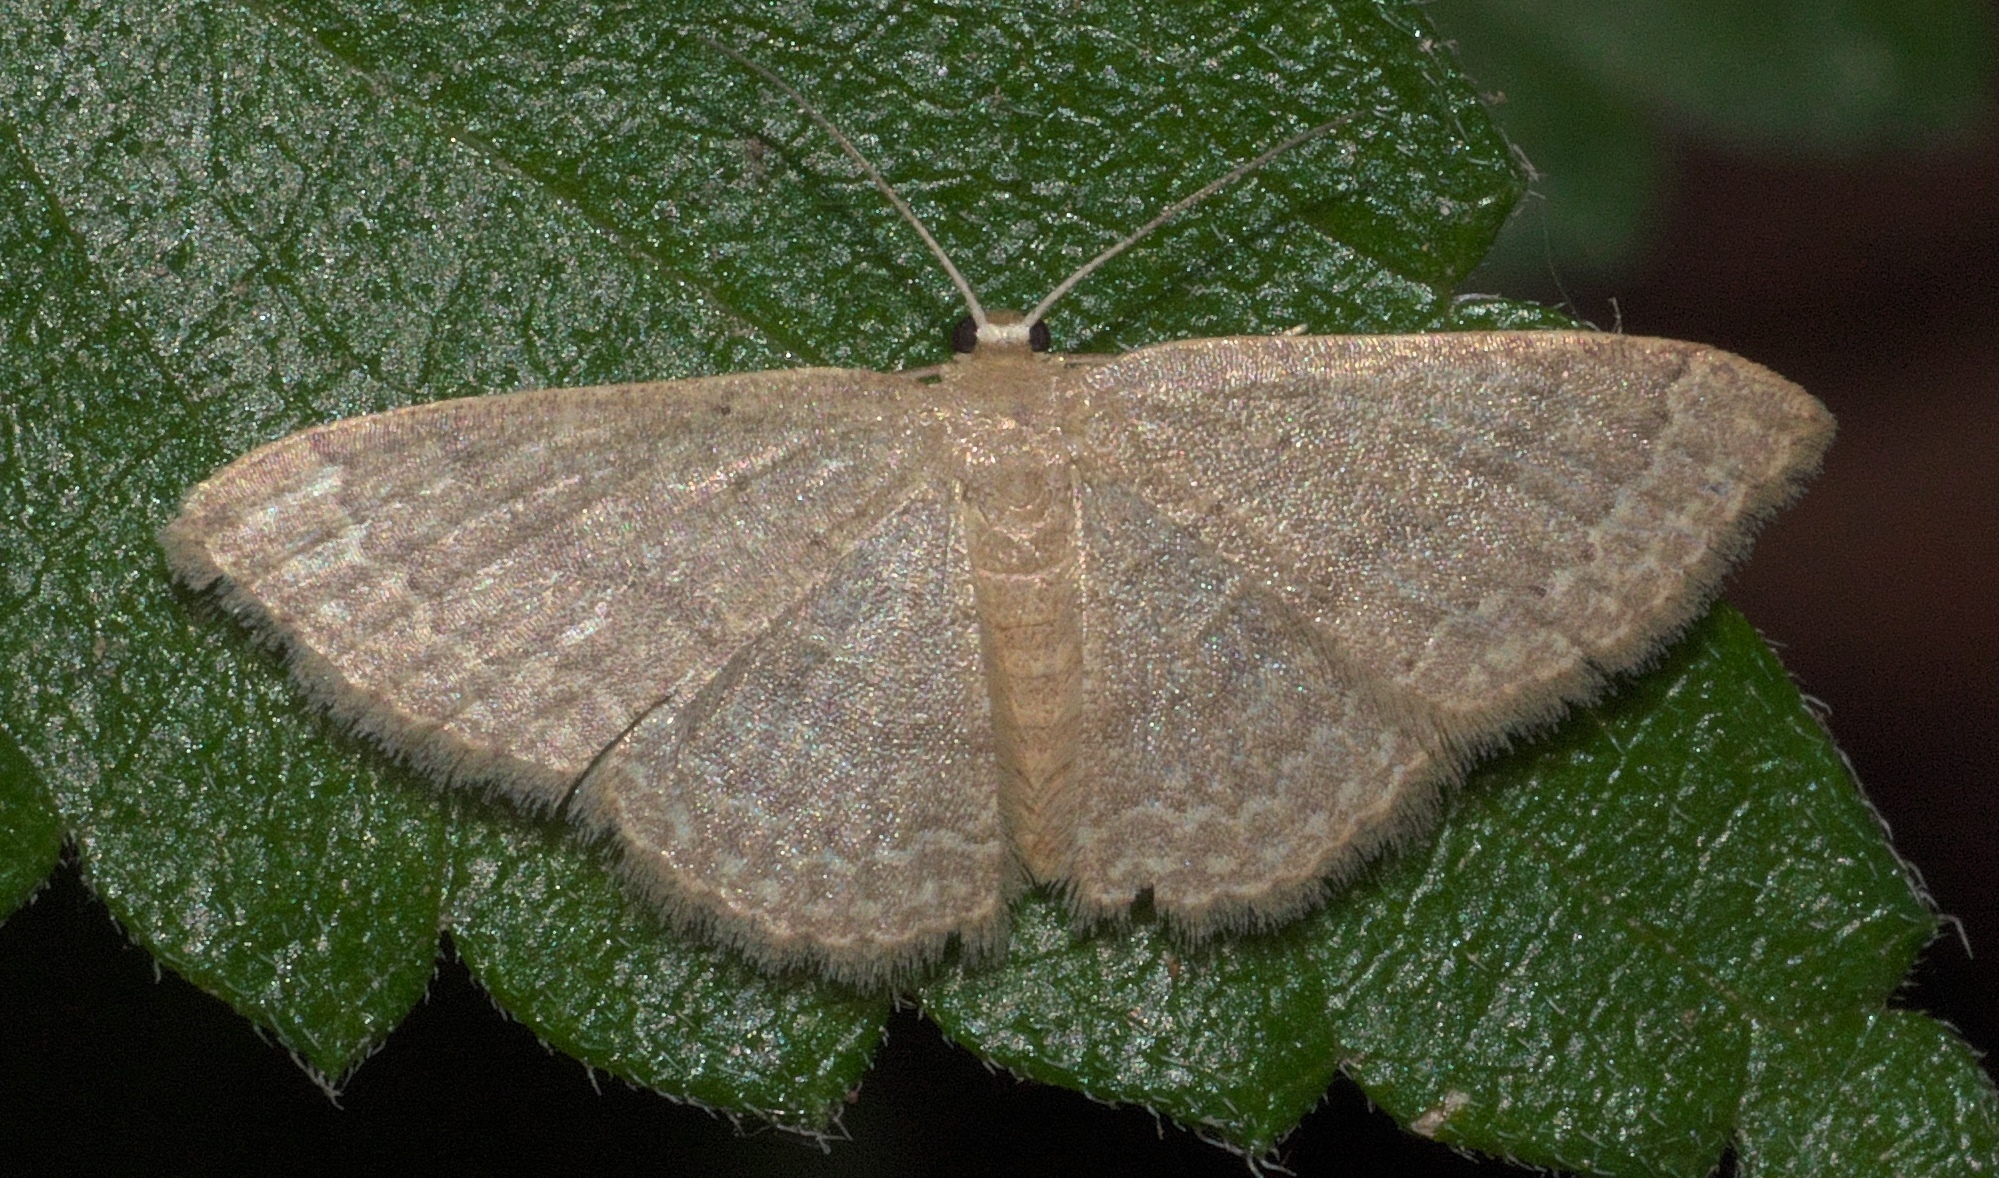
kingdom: Animalia
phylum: Arthropoda
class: Insecta
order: Lepidoptera
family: Geometridae
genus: Pleuroprucha
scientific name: Pleuroprucha insulsaria
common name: Common tan wave
